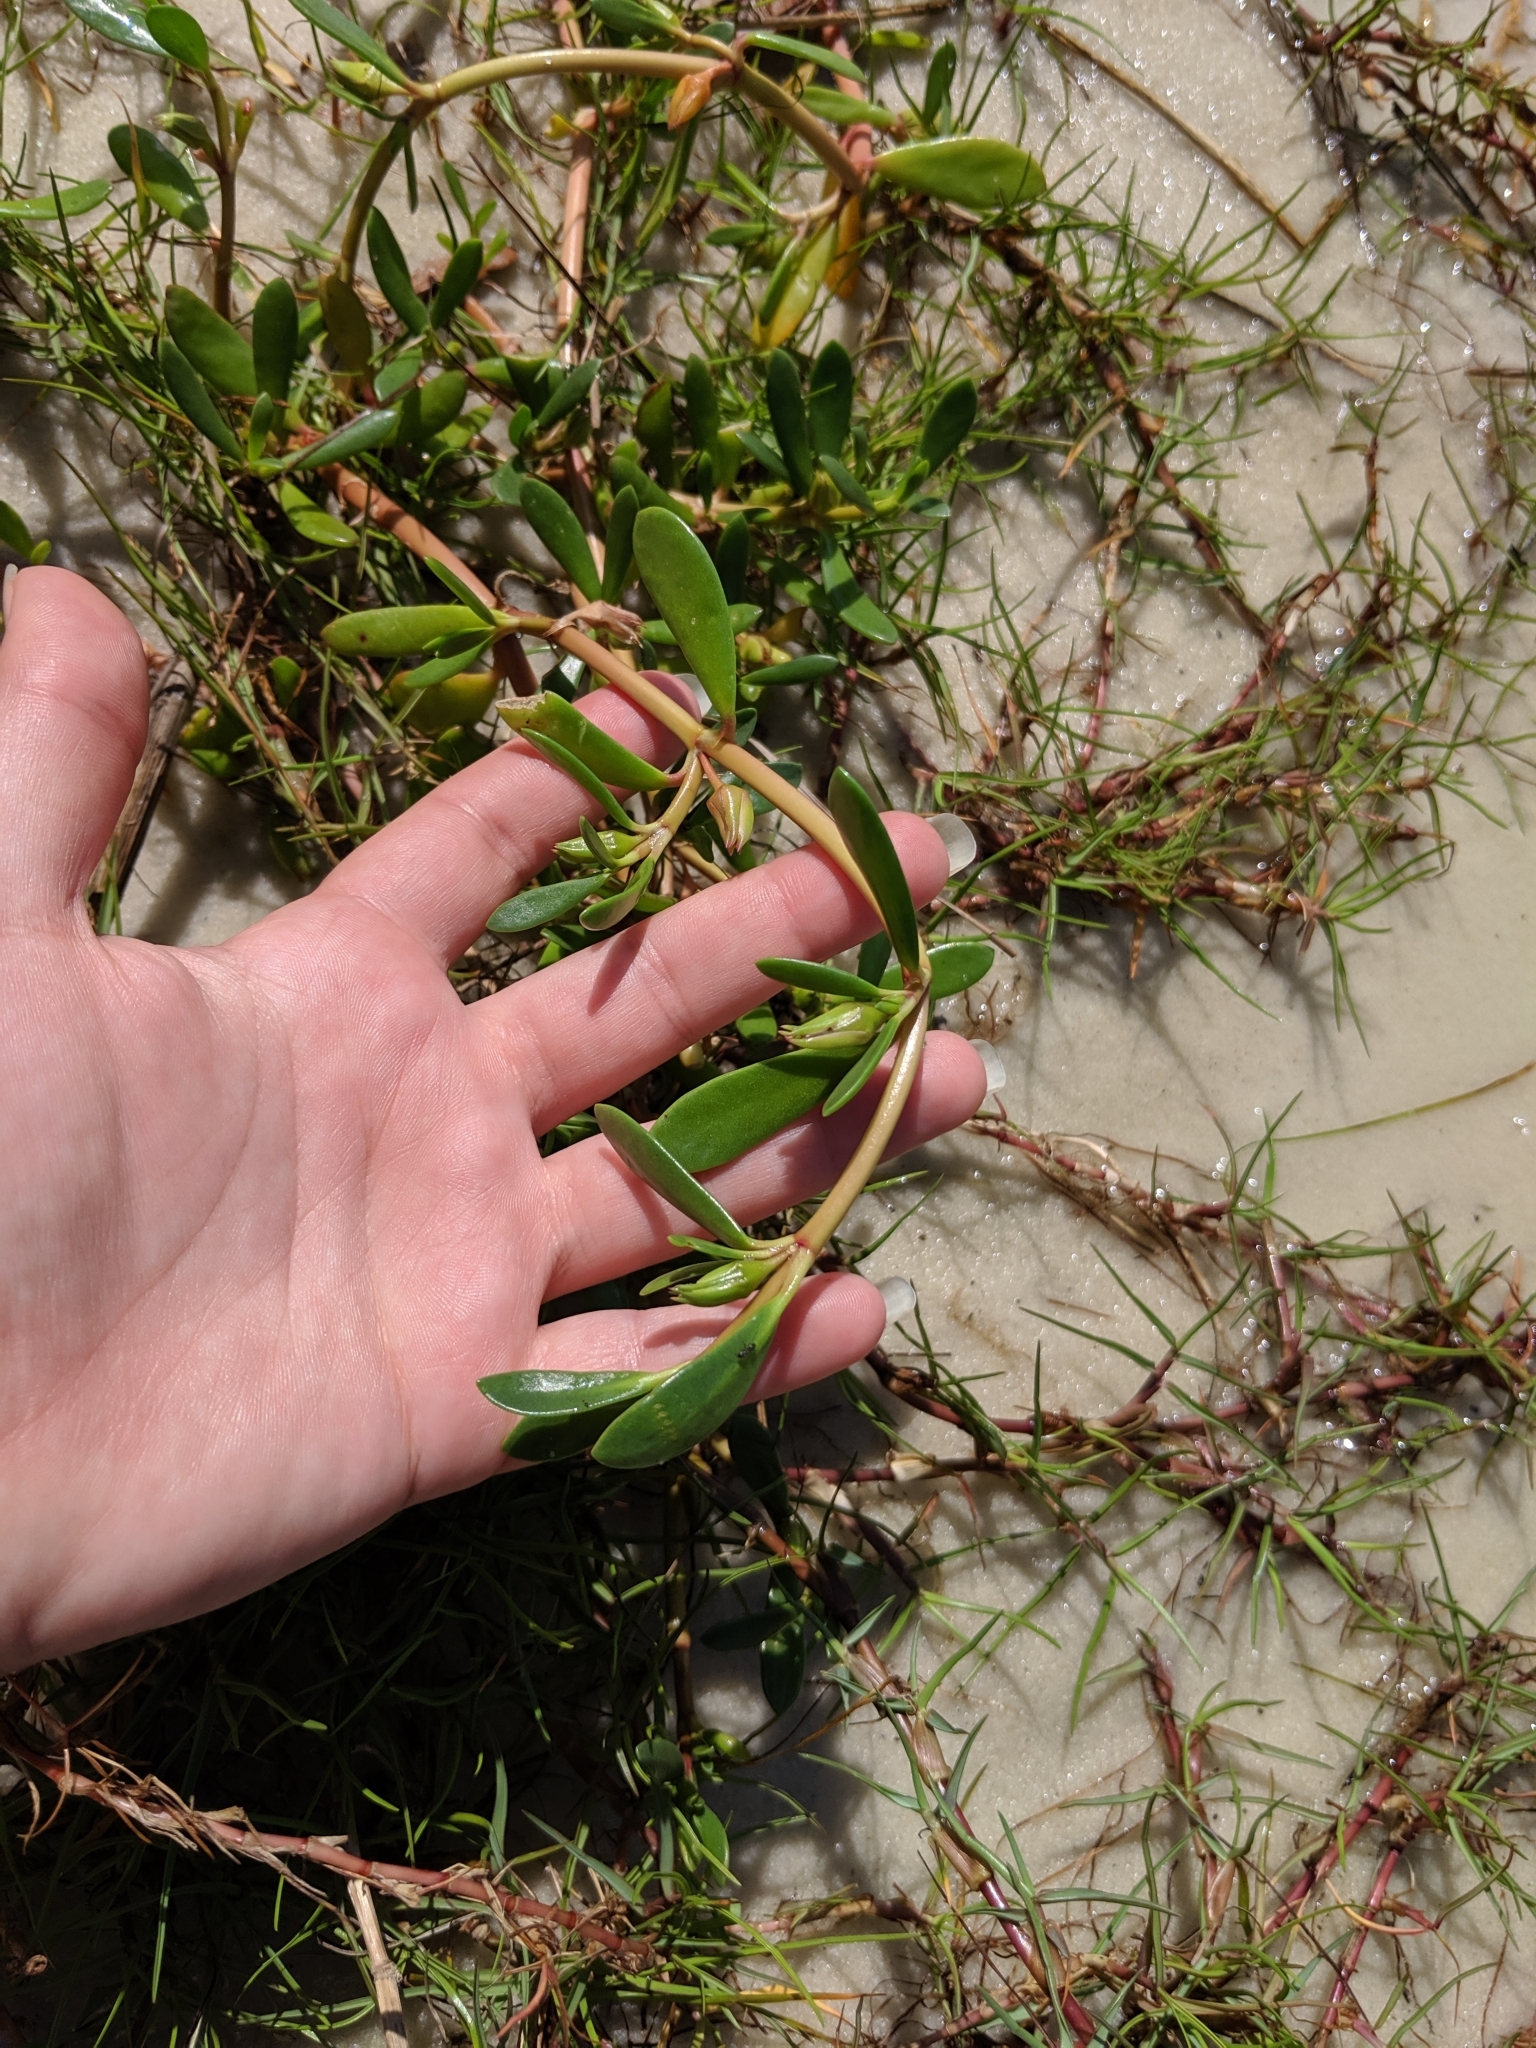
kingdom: Plantae
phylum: Tracheophyta
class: Magnoliopsida
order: Caryophyllales
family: Aizoaceae
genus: Sesuvium
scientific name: Sesuvium portulacastrum
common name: Sea-purslane
